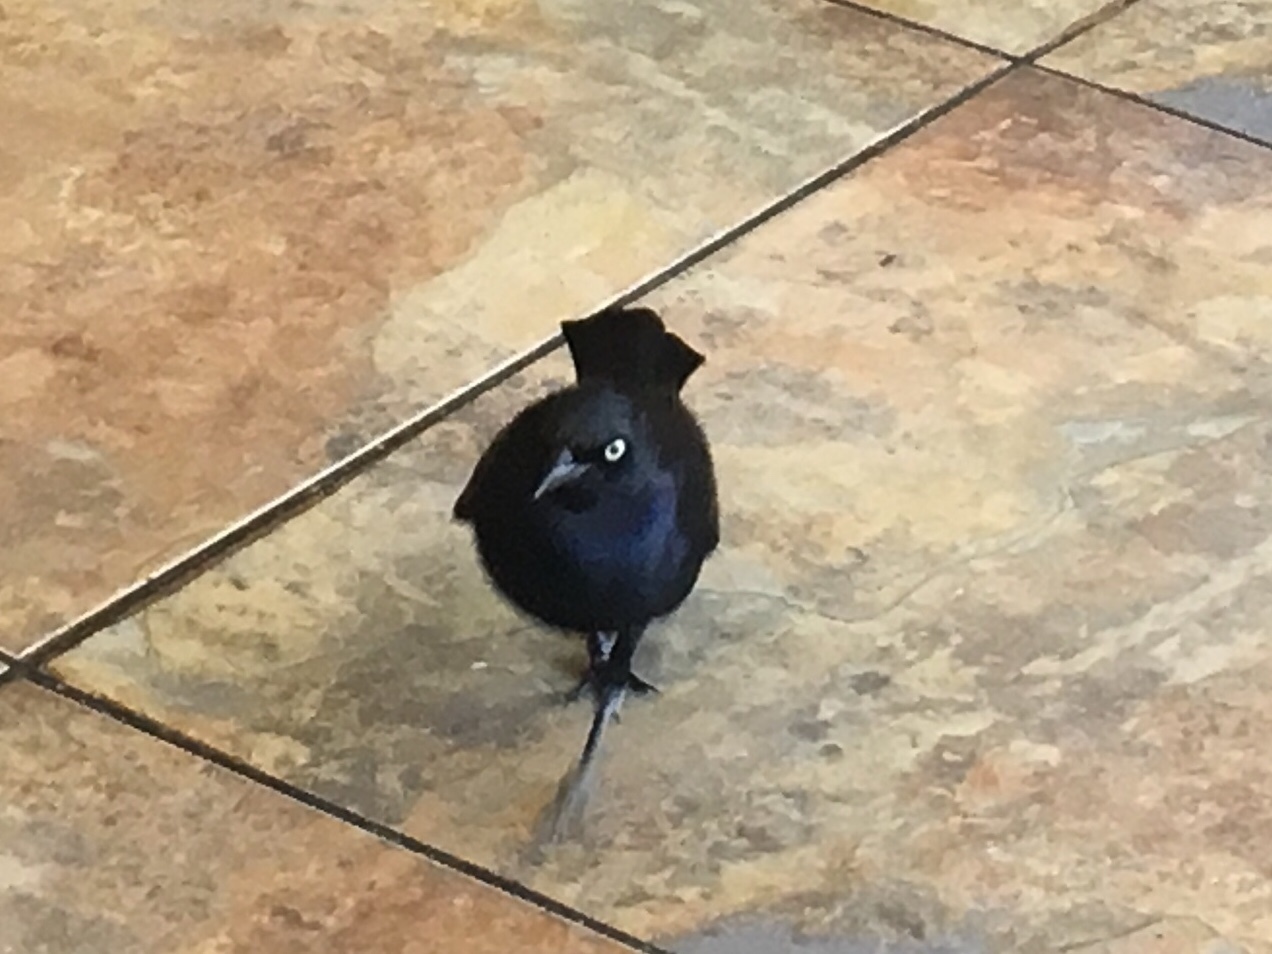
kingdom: Animalia
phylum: Chordata
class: Aves
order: Passeriformes
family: Icteridae
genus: Euphagus
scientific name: Euphagus cyanocephalus
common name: Brewer's blackbird
